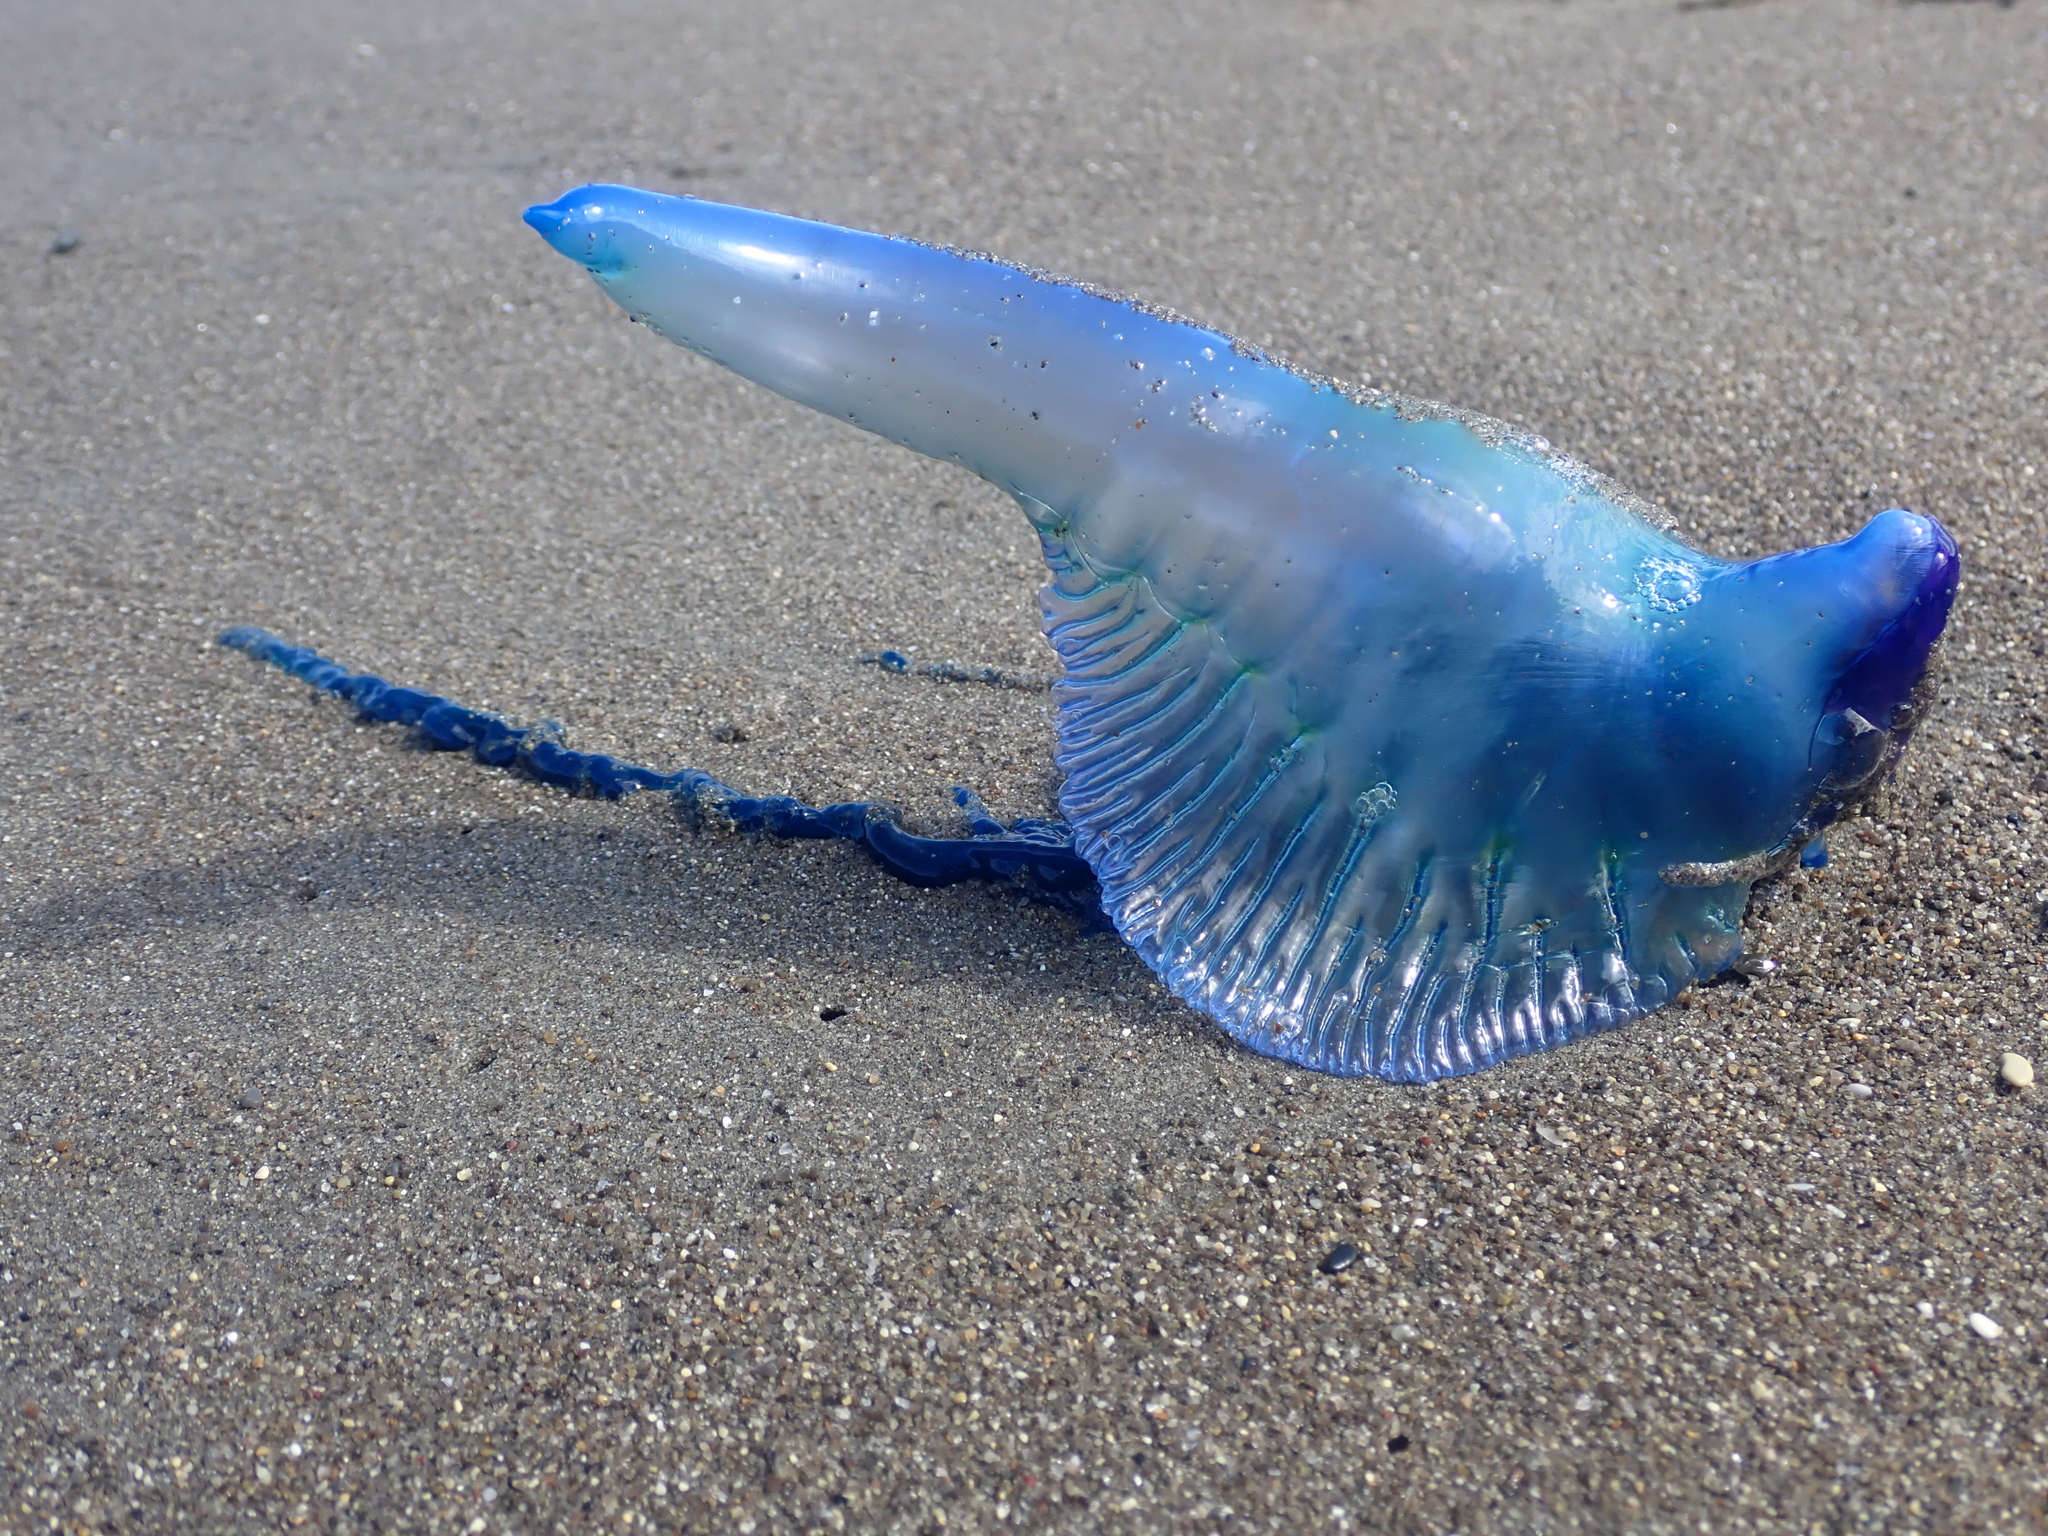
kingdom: Animalia
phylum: Cnidaria
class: Hydrozoa
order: Siphonophorae
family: Physaliidae
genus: Physalia
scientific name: Physalia physalis
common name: Portuguese man-of-war
